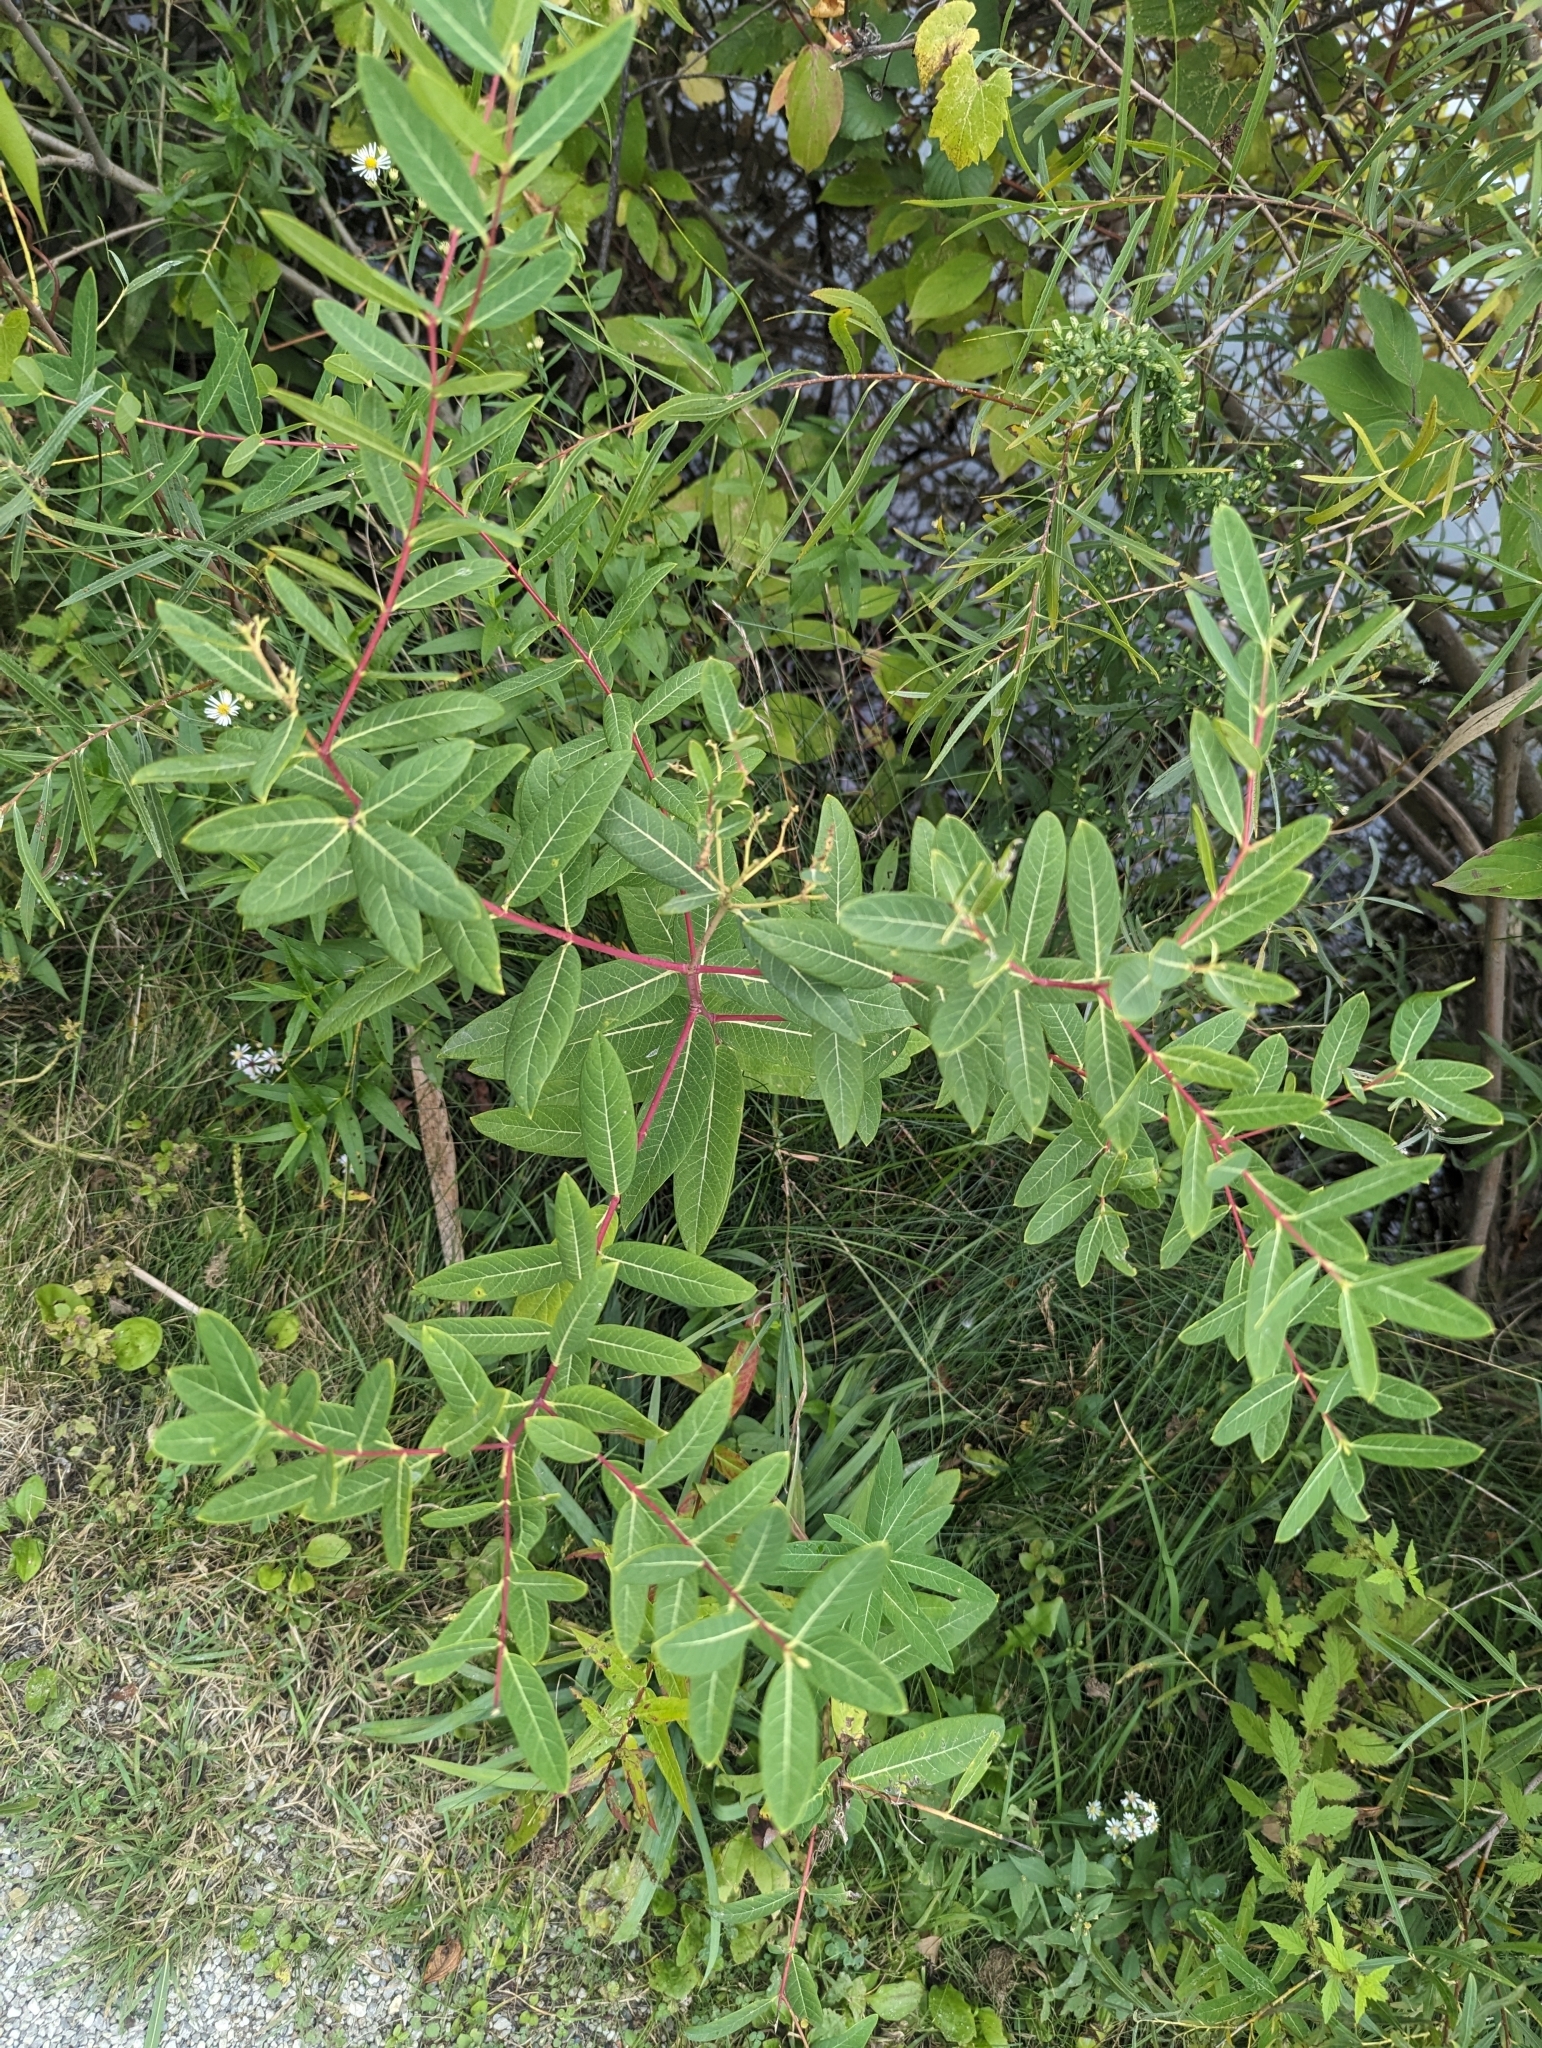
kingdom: Plantae
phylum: Tracheophyta
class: Magnoliopsida
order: Gentianales
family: Apocynaceae
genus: Apocynum
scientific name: Apocynum cannabinum
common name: Hemp dogbane
